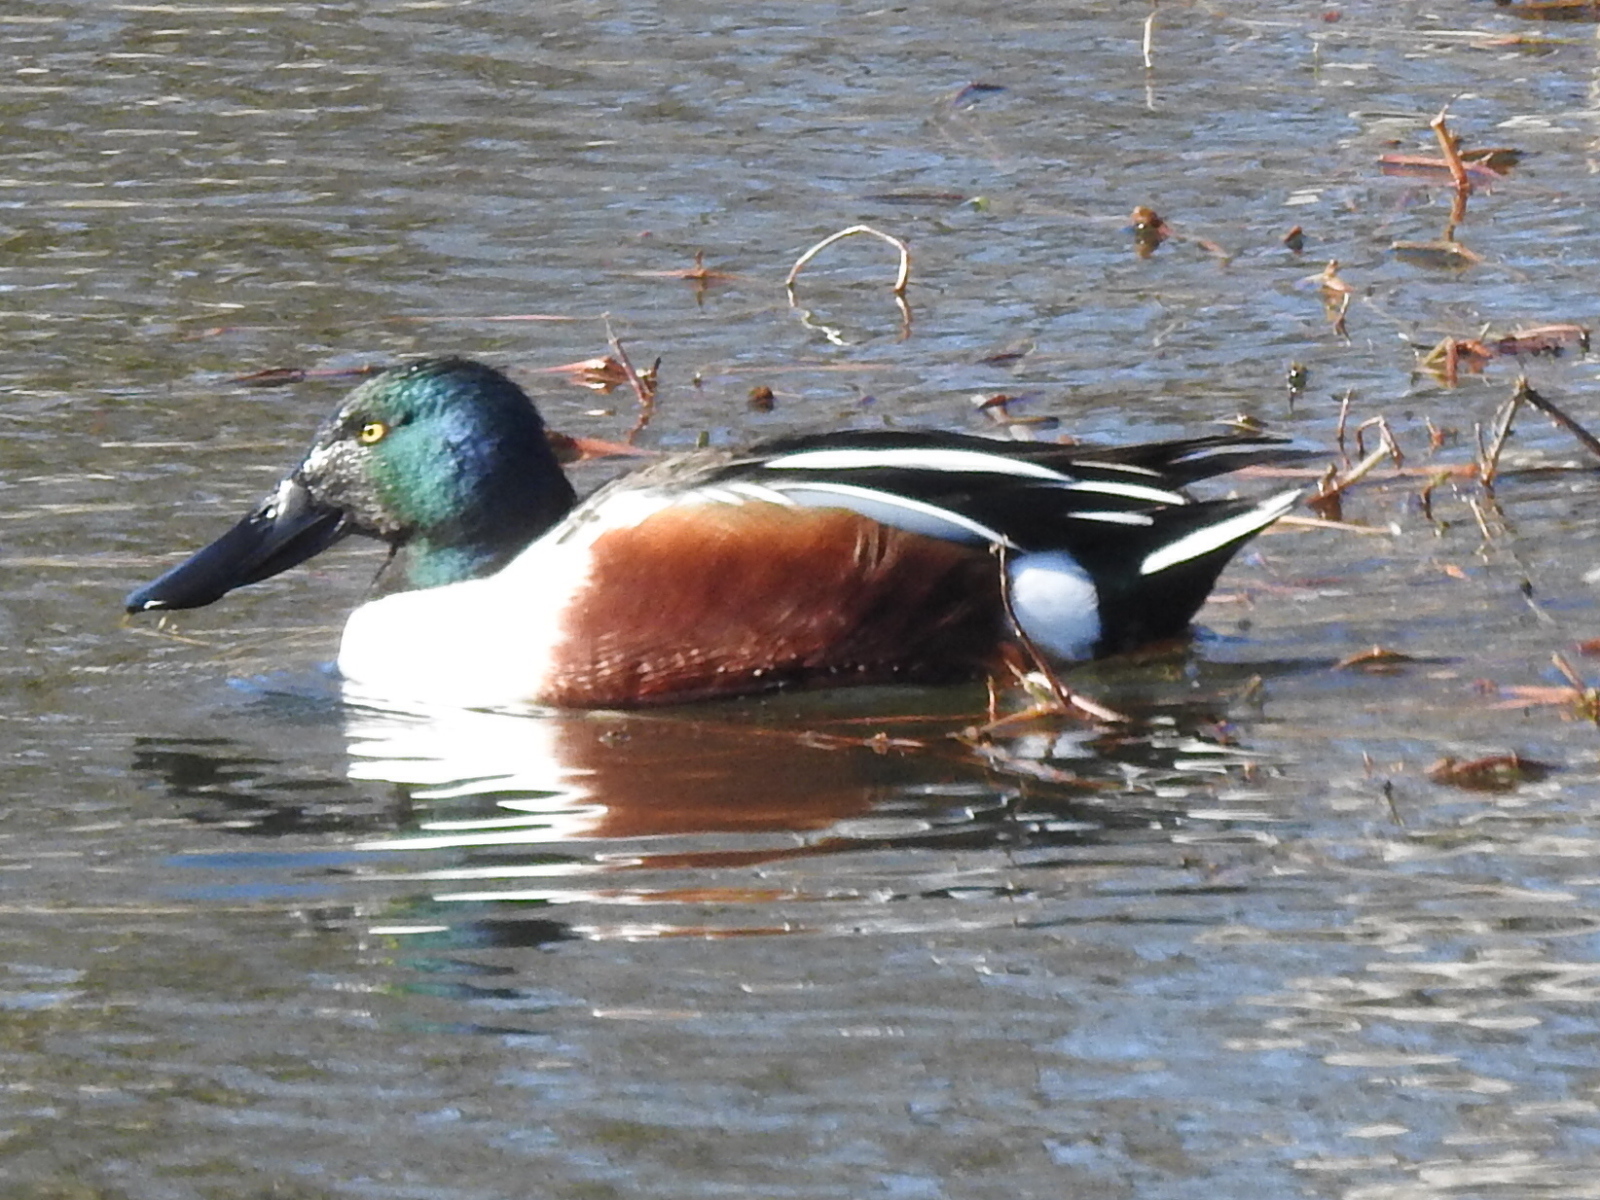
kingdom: Animalia
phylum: Chordata
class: Aves
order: Anseriformes
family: Anatidae
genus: Spatula
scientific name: Spatula clypeata
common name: Northern shoveler
